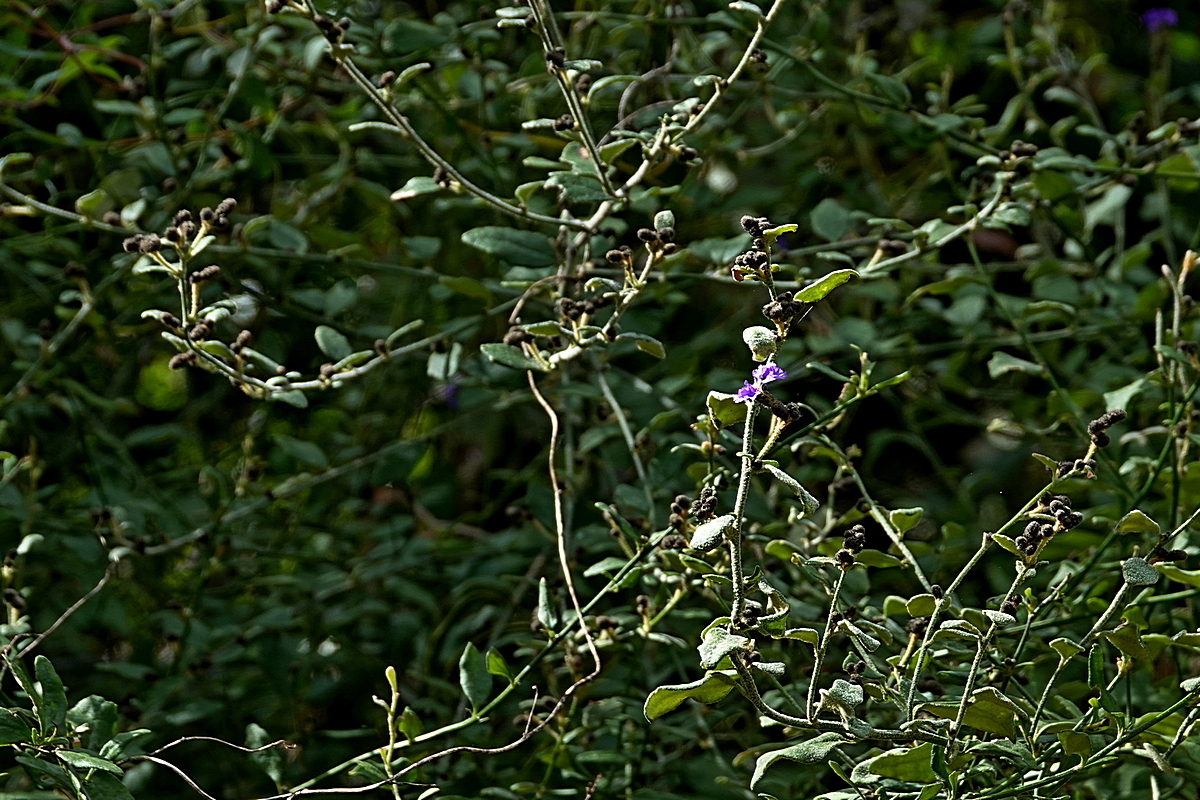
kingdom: Plantae
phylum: Tracheophyta
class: Magnoliopsida
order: Asterales
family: Goodeniaceae
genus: Dampiera
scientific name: Dampiera purpurea
